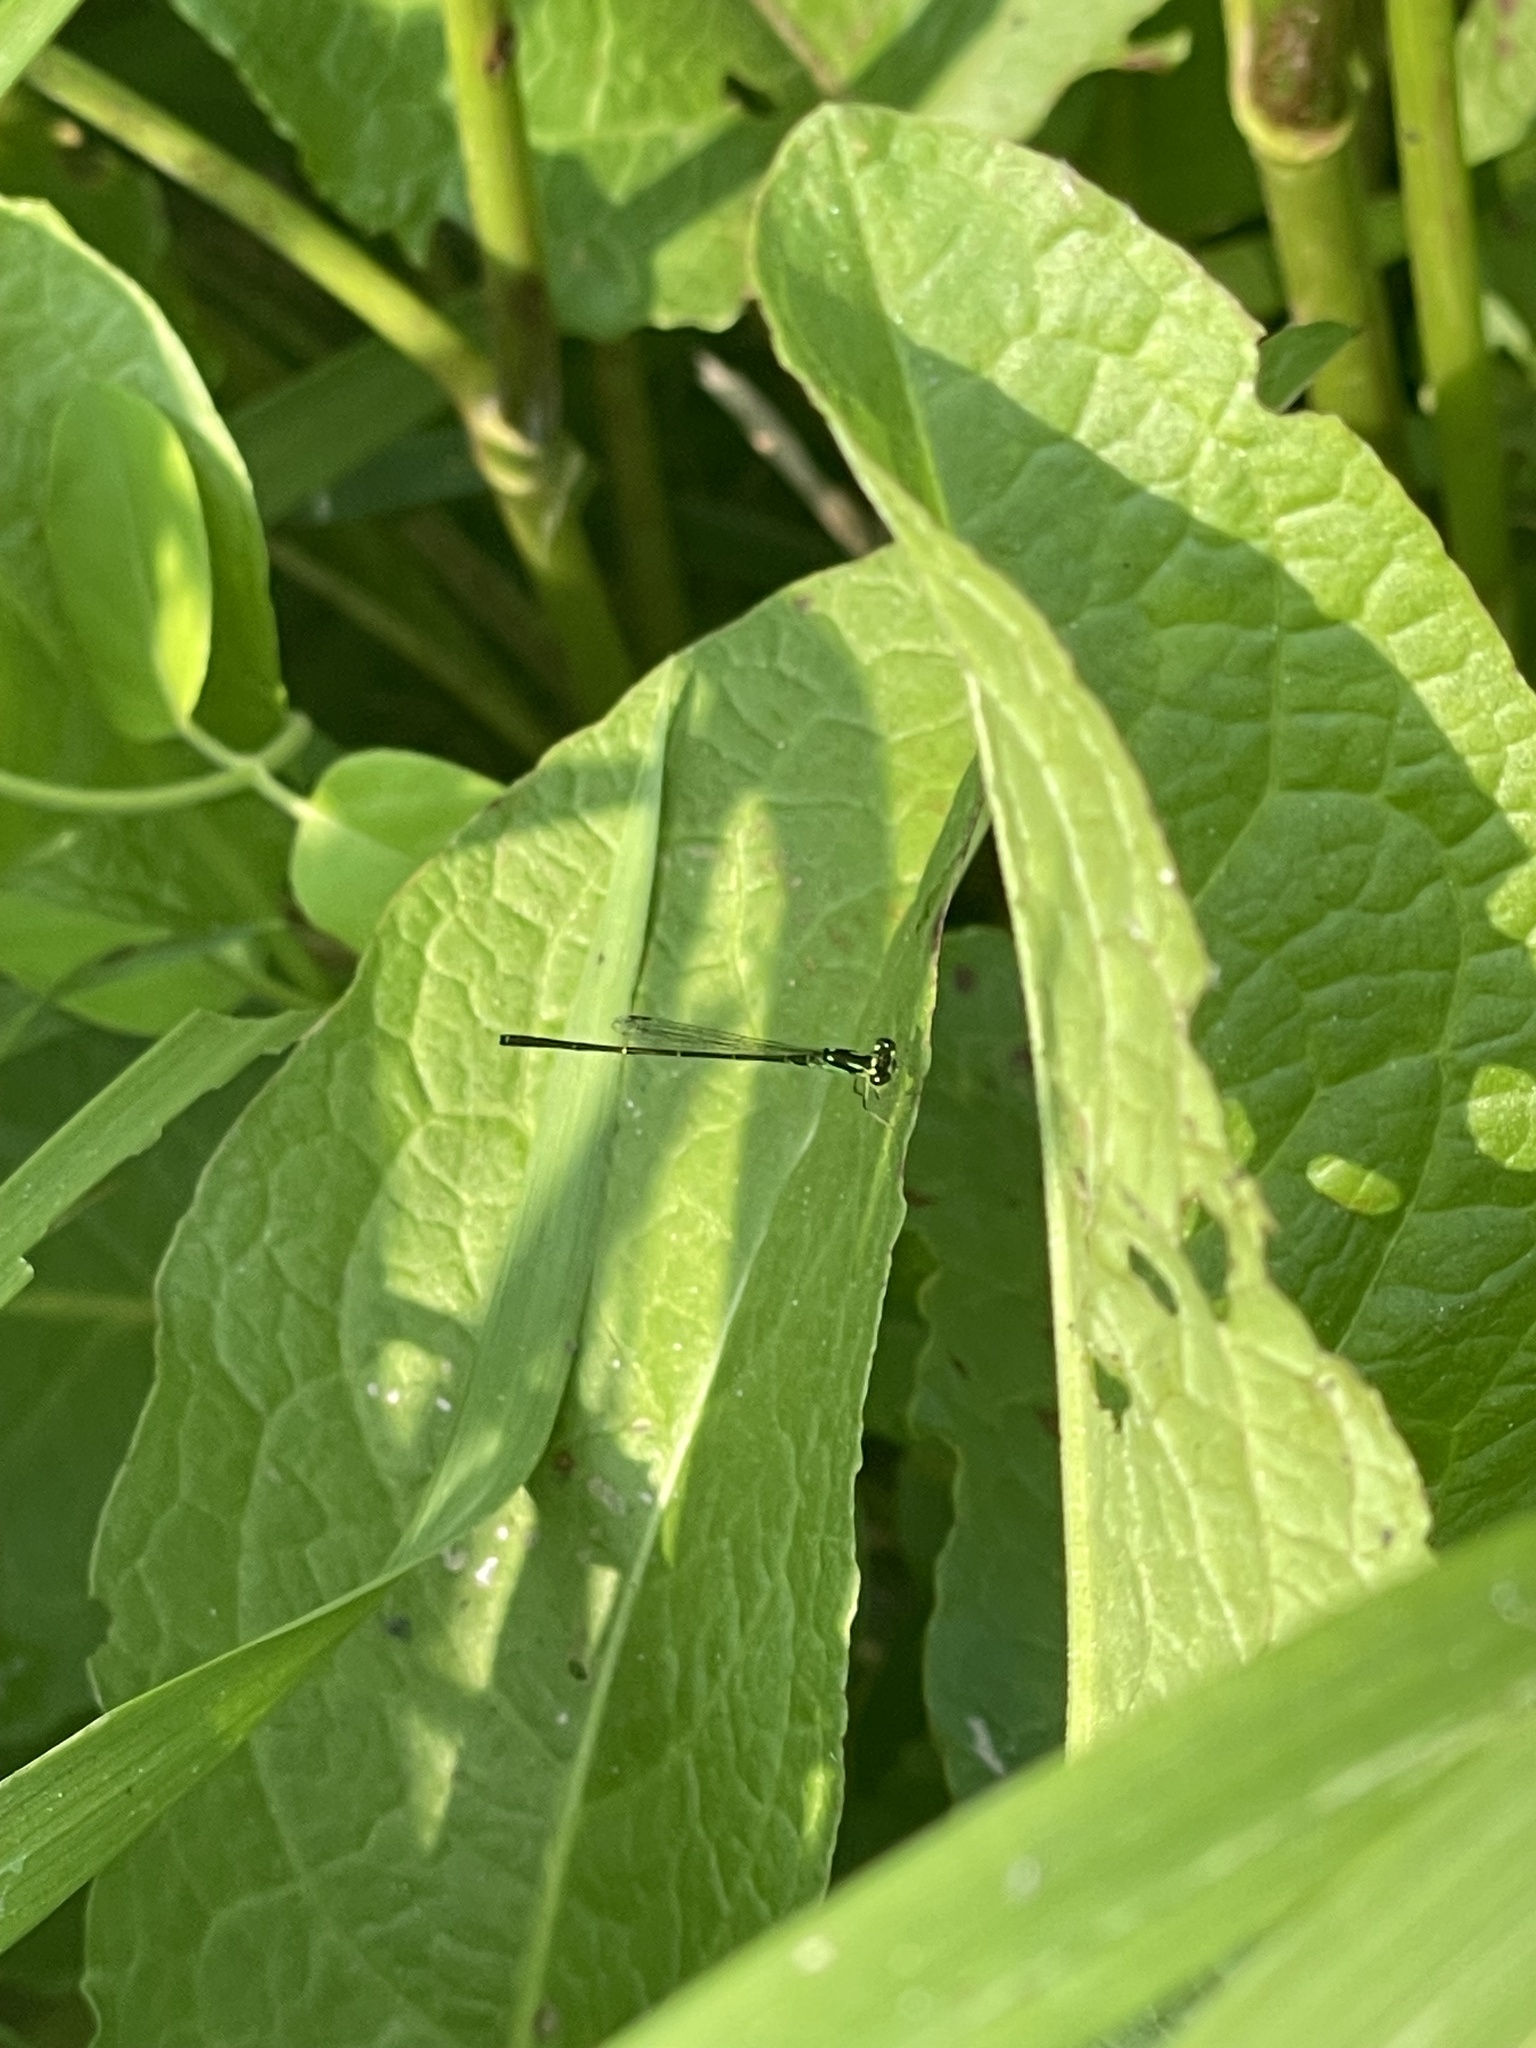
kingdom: Animalia
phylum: Arthropoda
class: Insecta
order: Odonata
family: Coenagrionidae
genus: Ischnura
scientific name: Ischnura posita
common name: Fragile forktail
